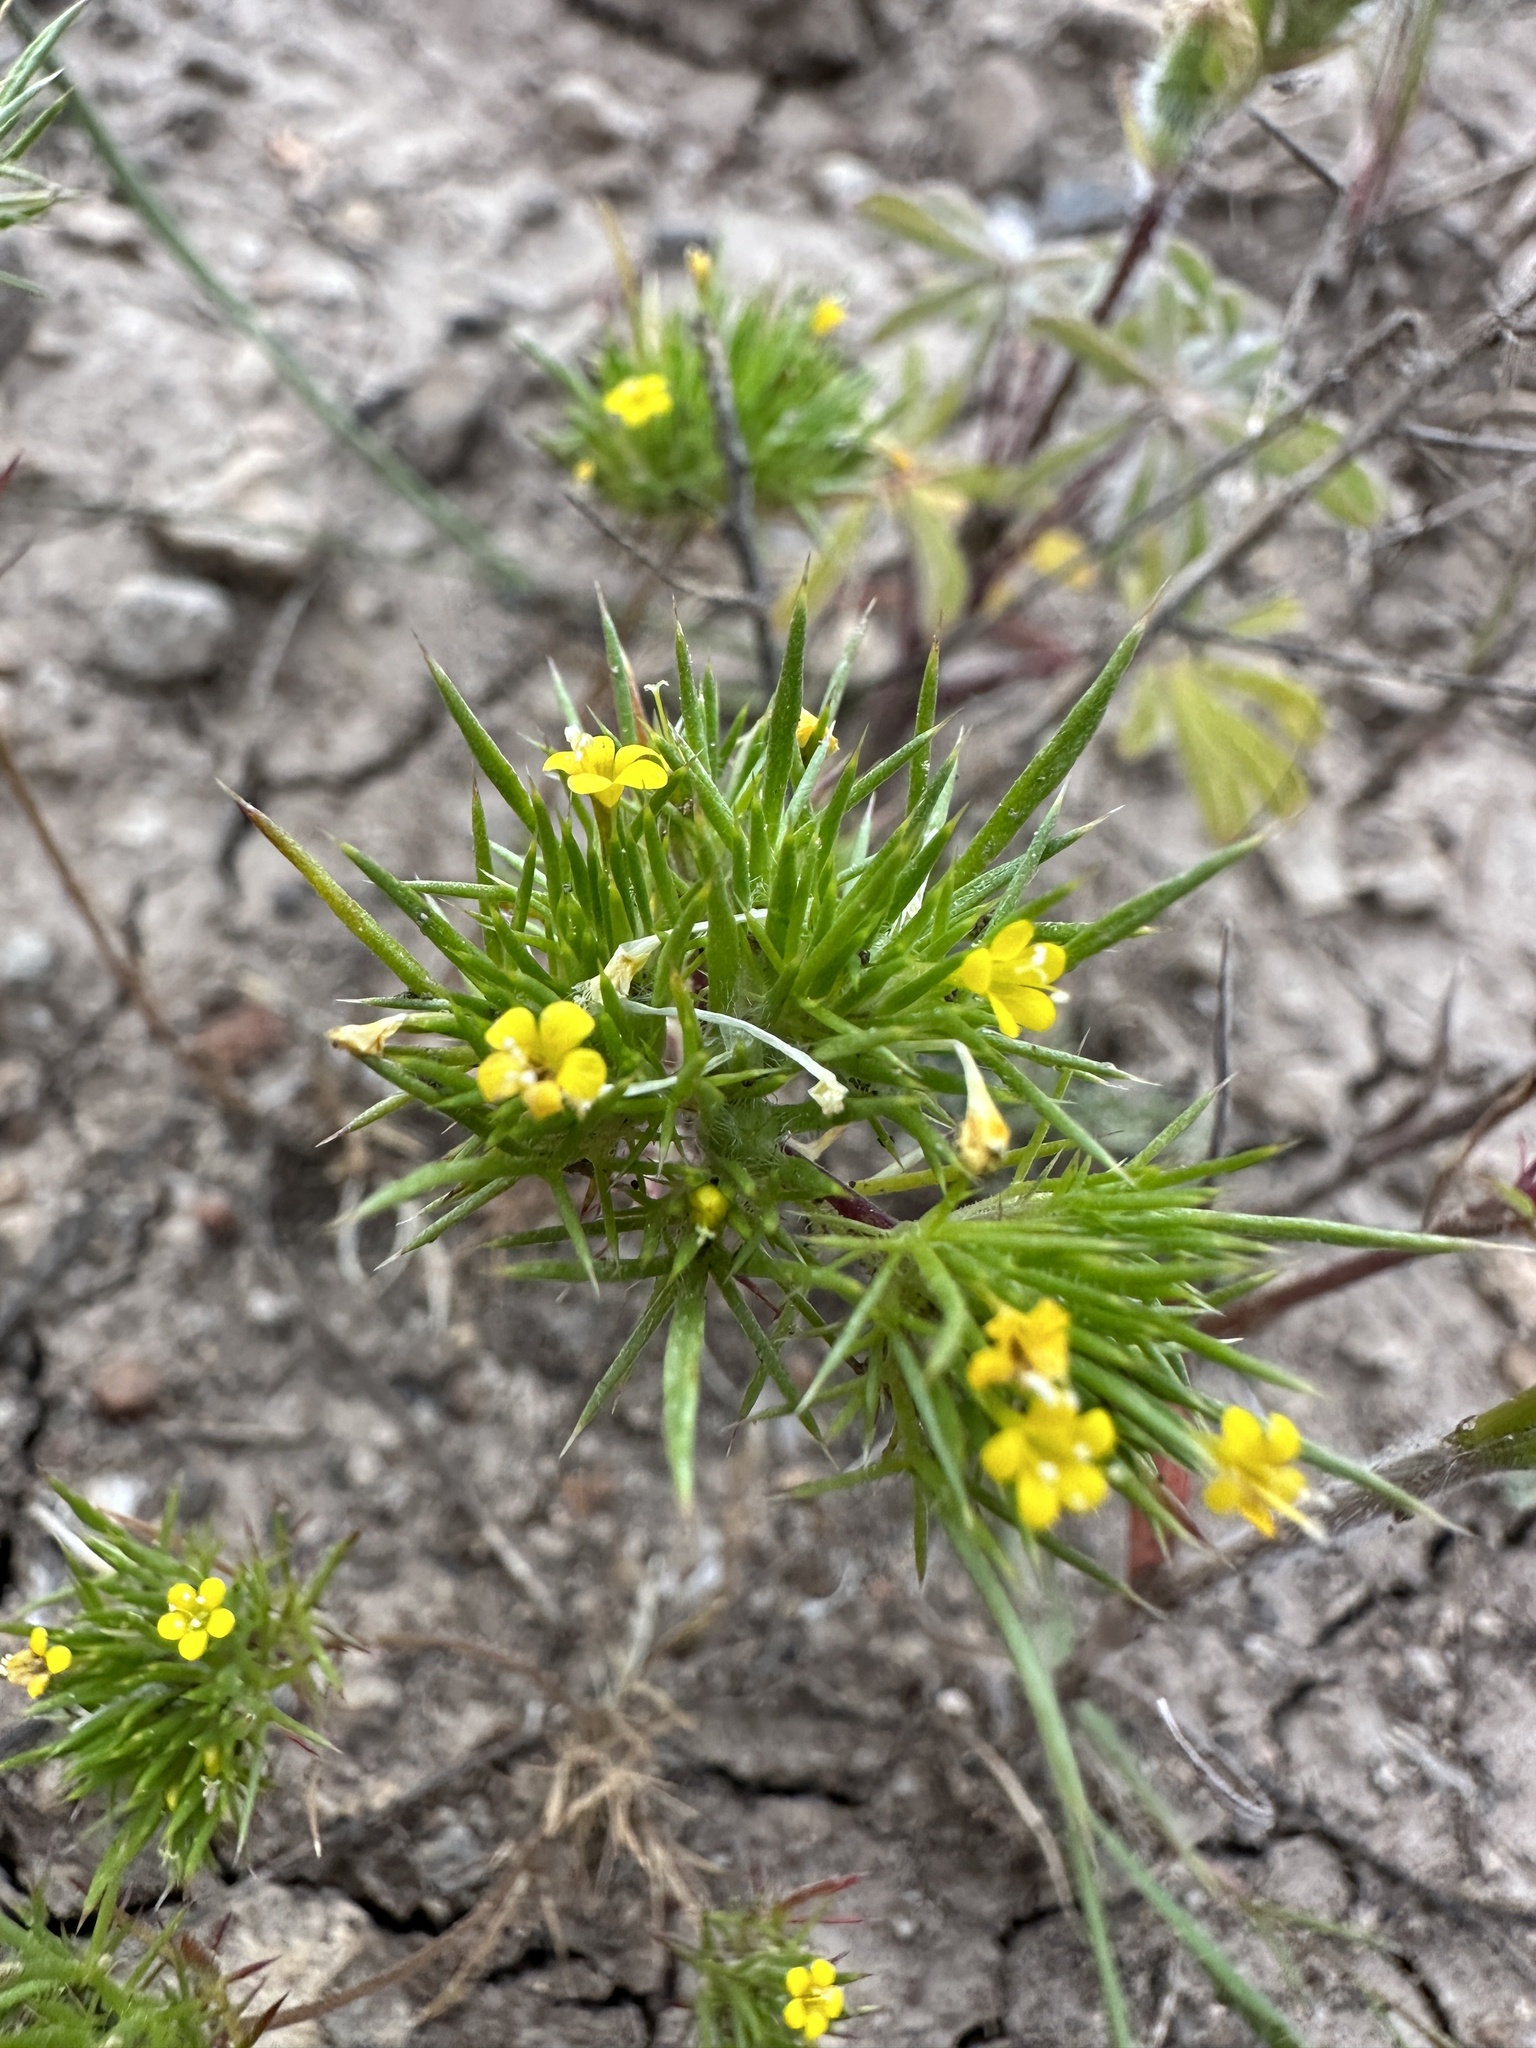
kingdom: Plantae
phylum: Tracheophyta
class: Magnoliopsida
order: Ericales
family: Polemoniaceae
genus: Navarretia
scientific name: Navarretia breweri
